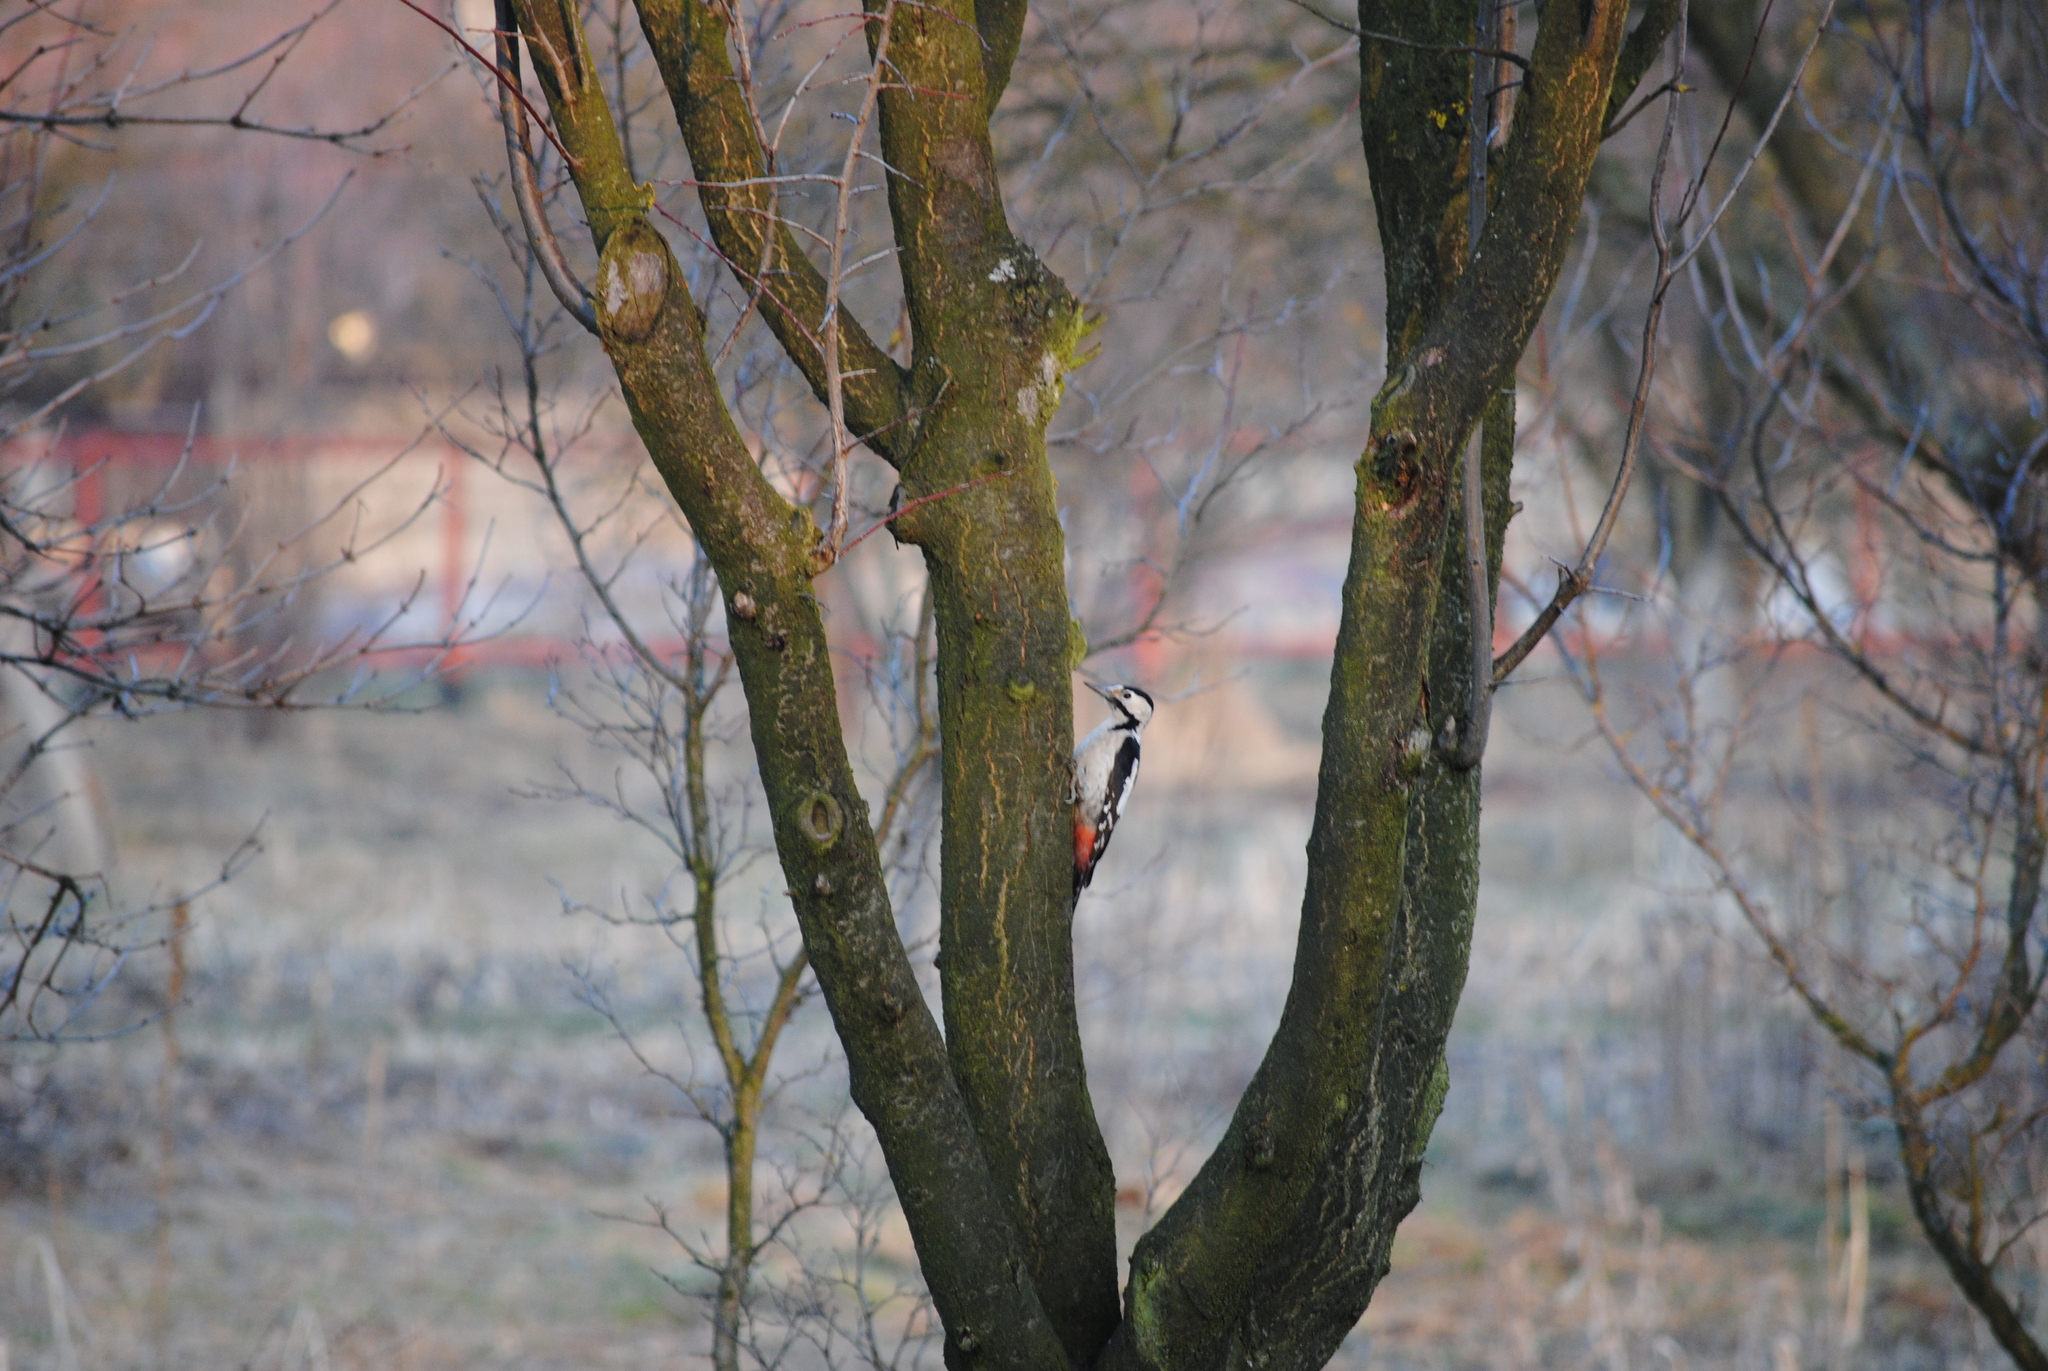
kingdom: Animalia
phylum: Chordata
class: Aves
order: Piciformes
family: Picidae
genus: Dendrocopos
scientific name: Dendrocopos syriacus
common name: Syrian woodpecker
